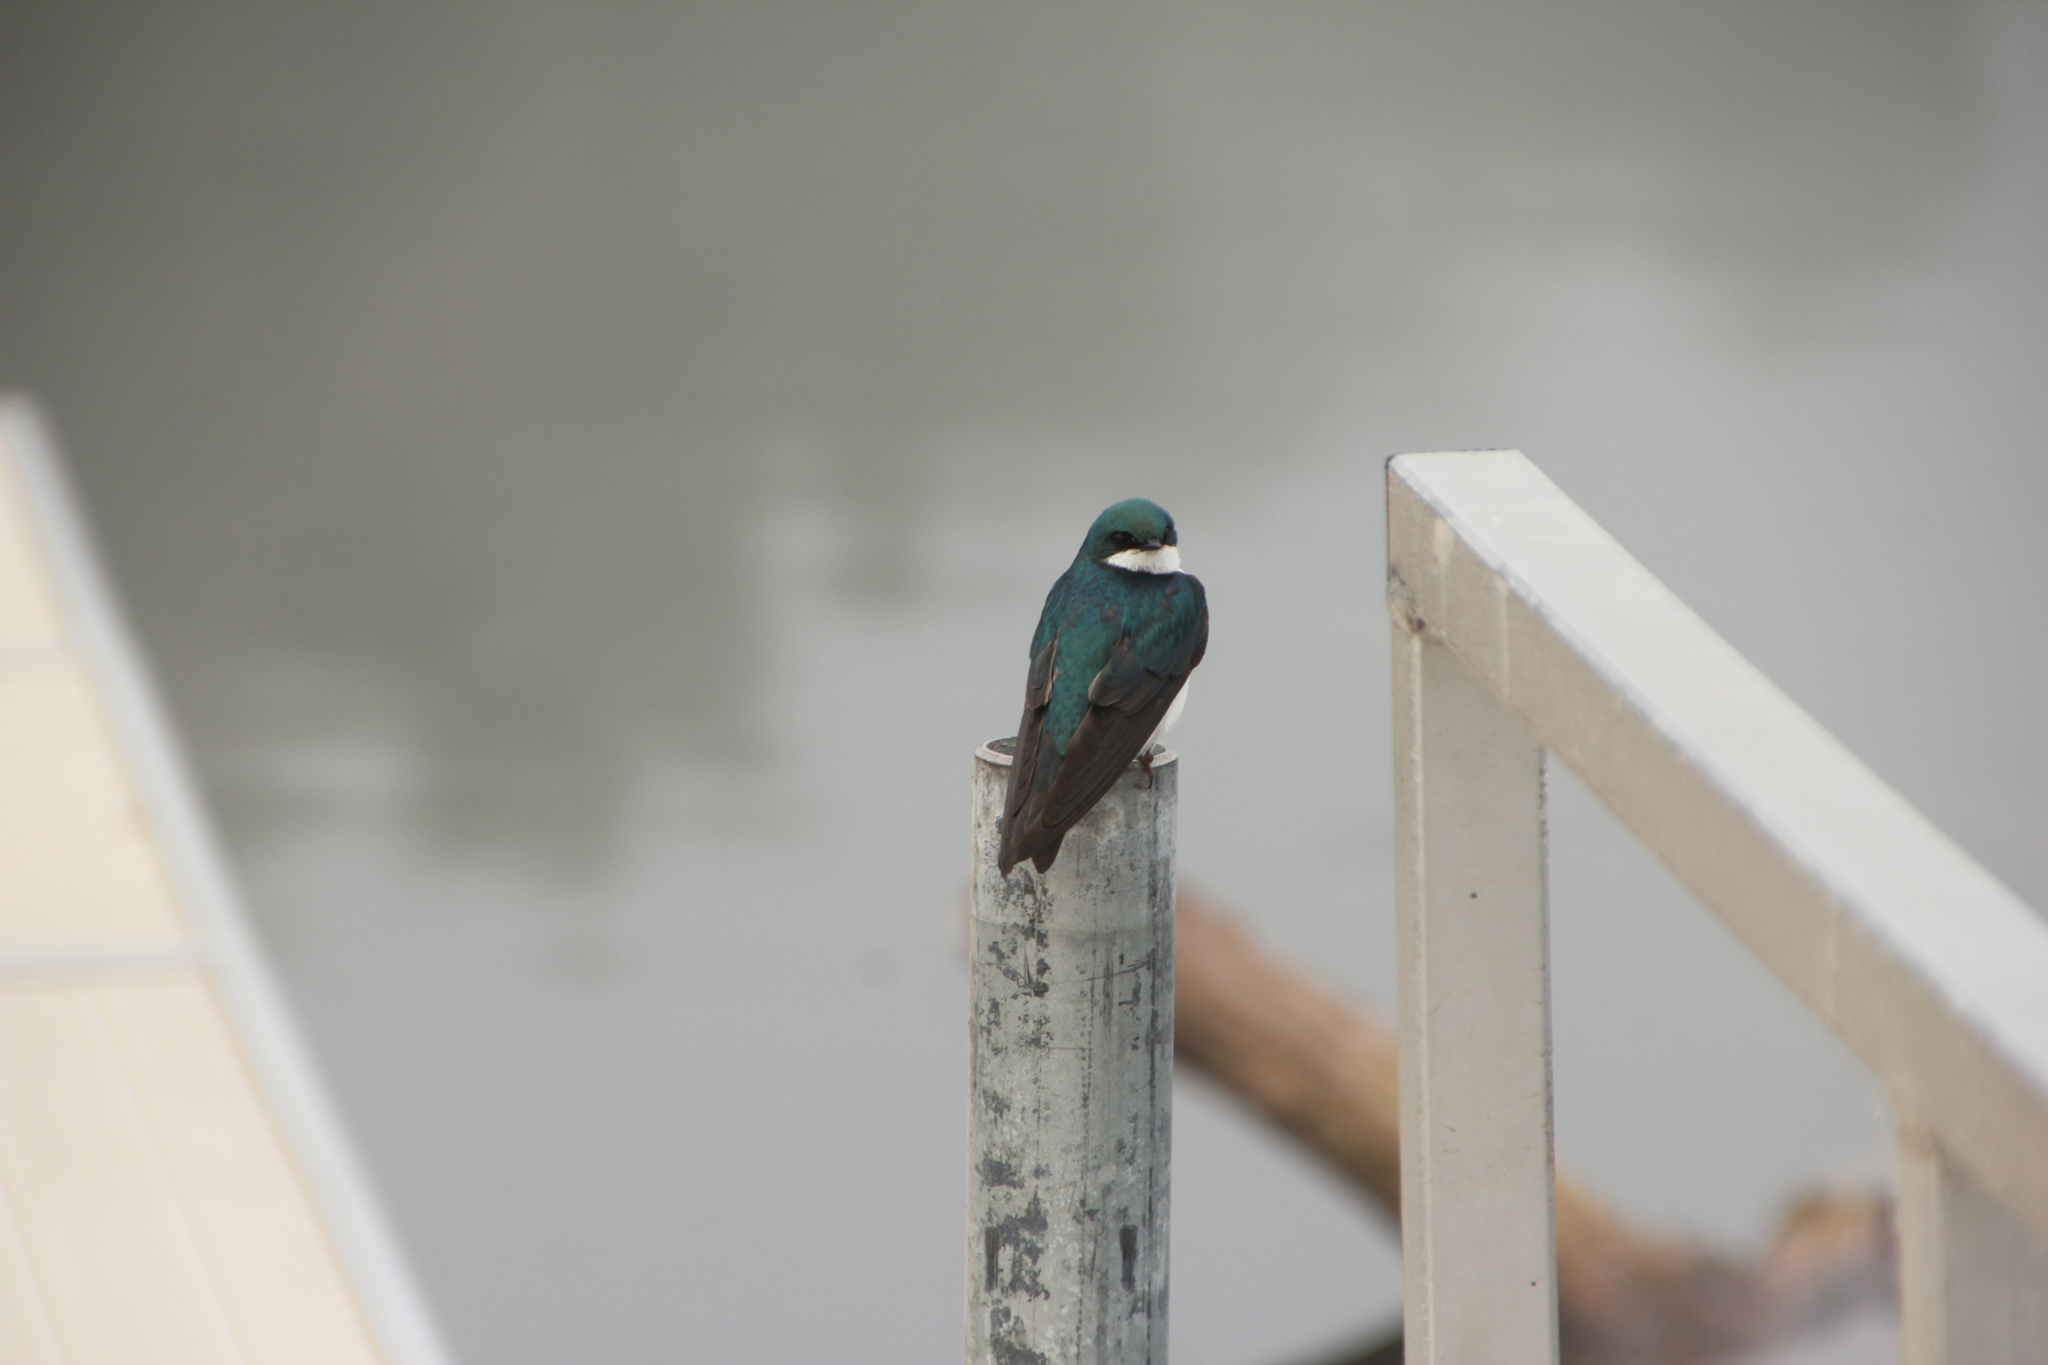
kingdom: Animalia
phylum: Chordata
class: Aves
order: Passeriformes
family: Hirundinidae
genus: Tachycineta
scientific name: Tachycineta bicolor
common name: Tree swallow
